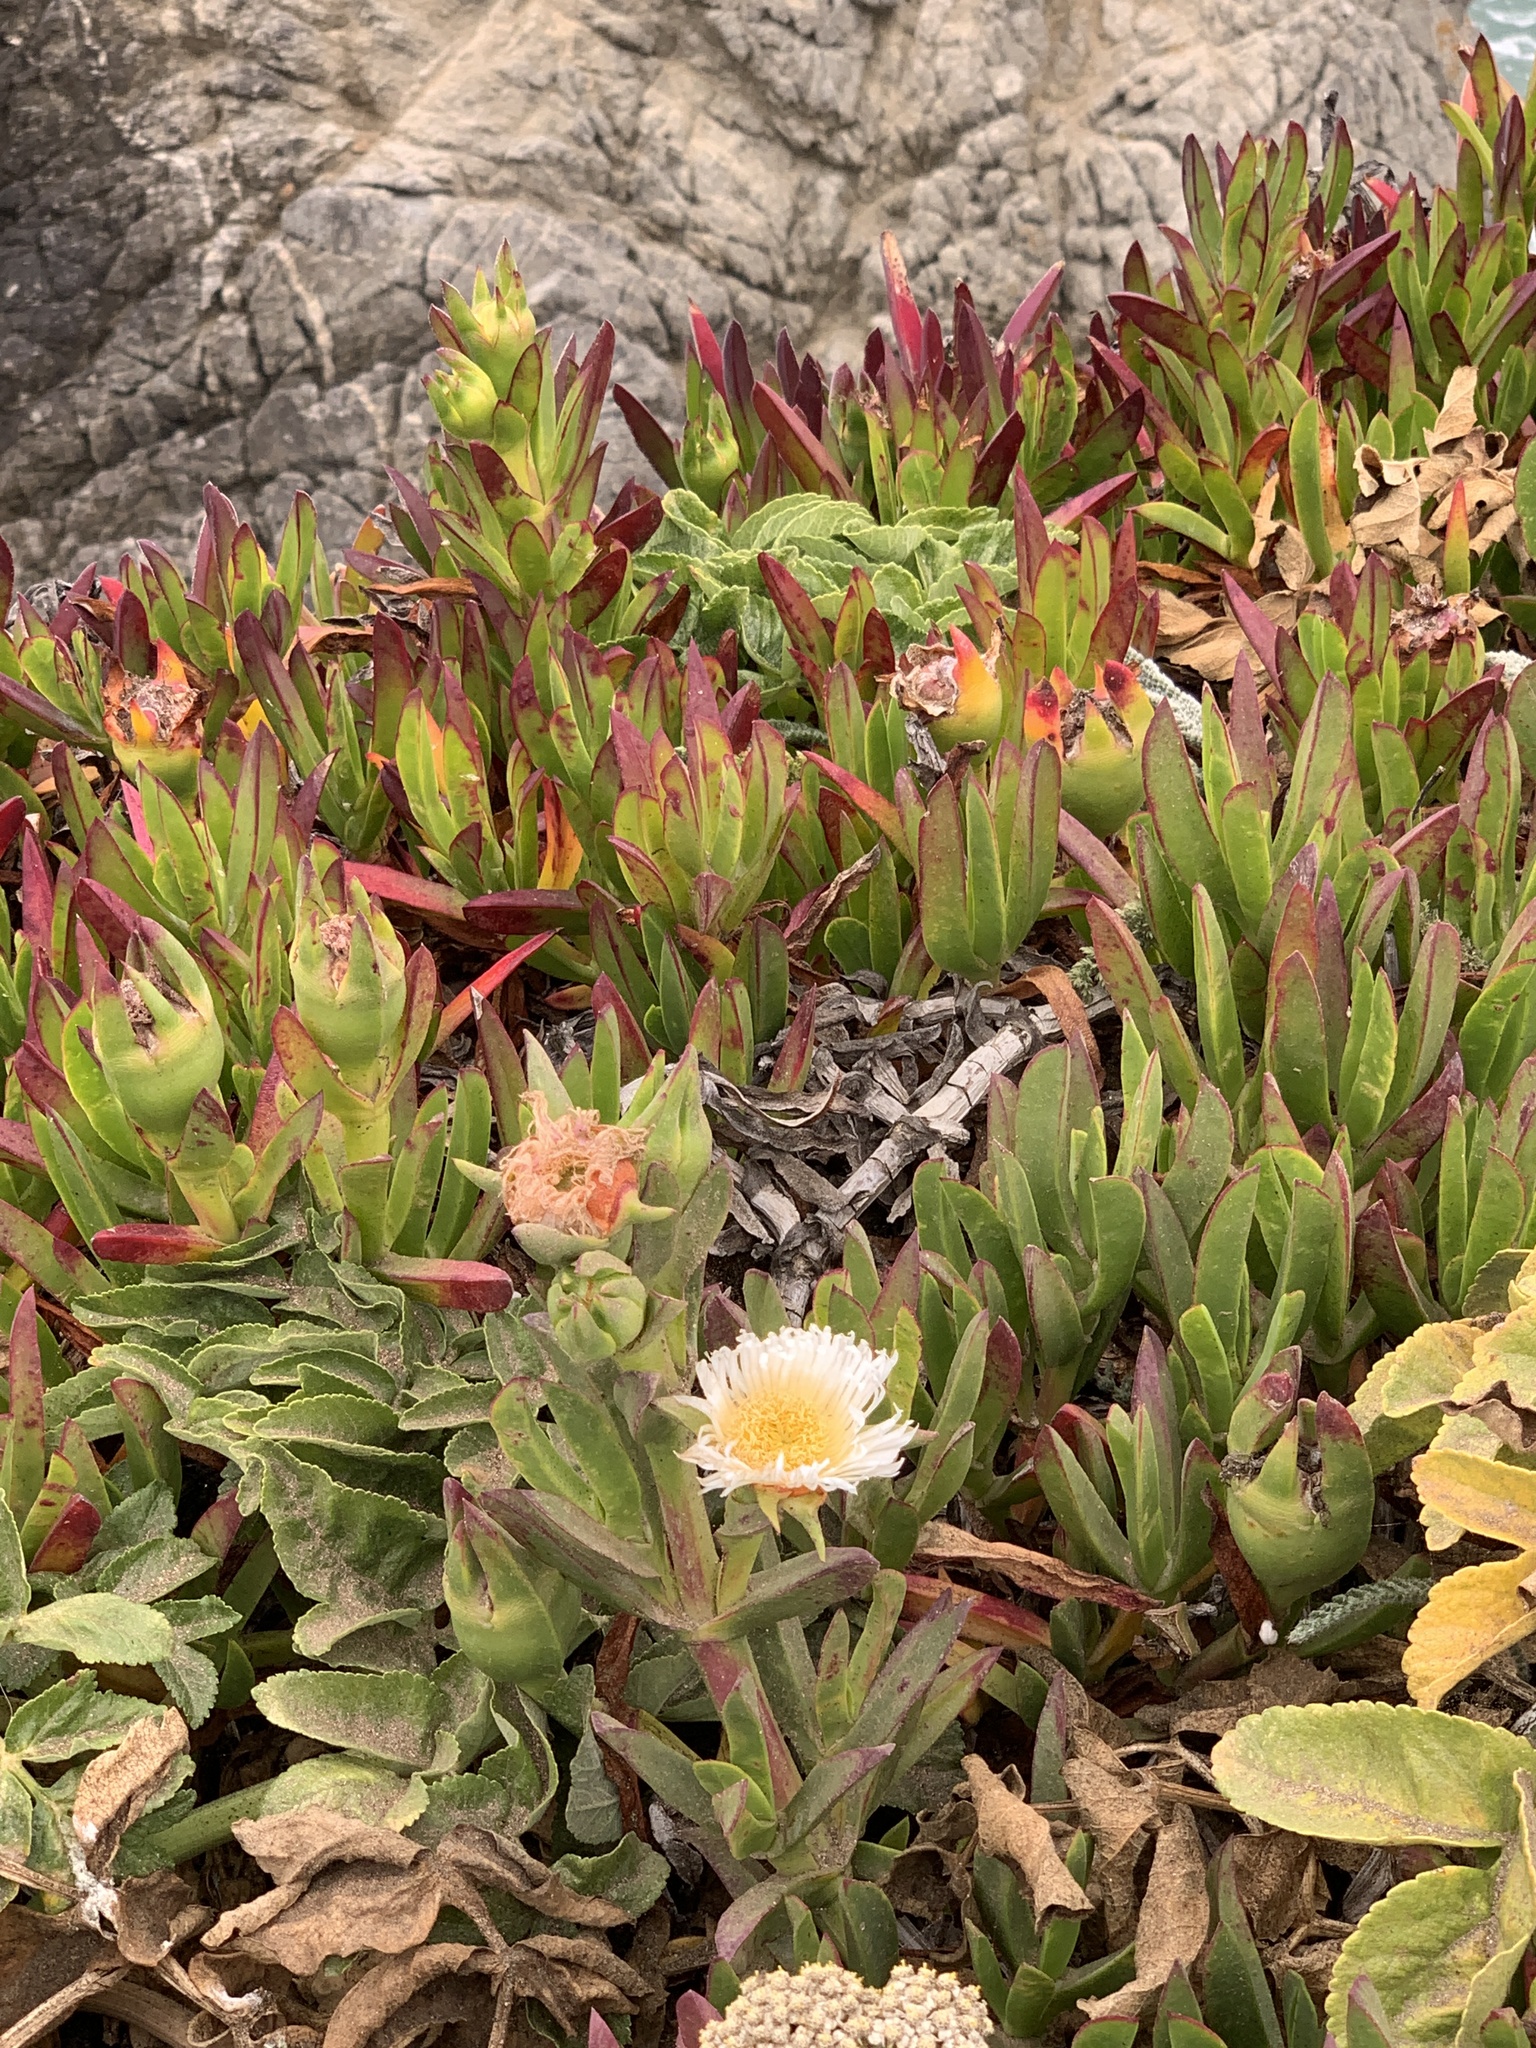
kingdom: Plantae
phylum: Tracheophyta
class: Magnoliopsida
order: Caryophyllales
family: Aizoaceae
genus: Carpobrotus
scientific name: Carpobrotus edulis
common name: Hottentot-fig
